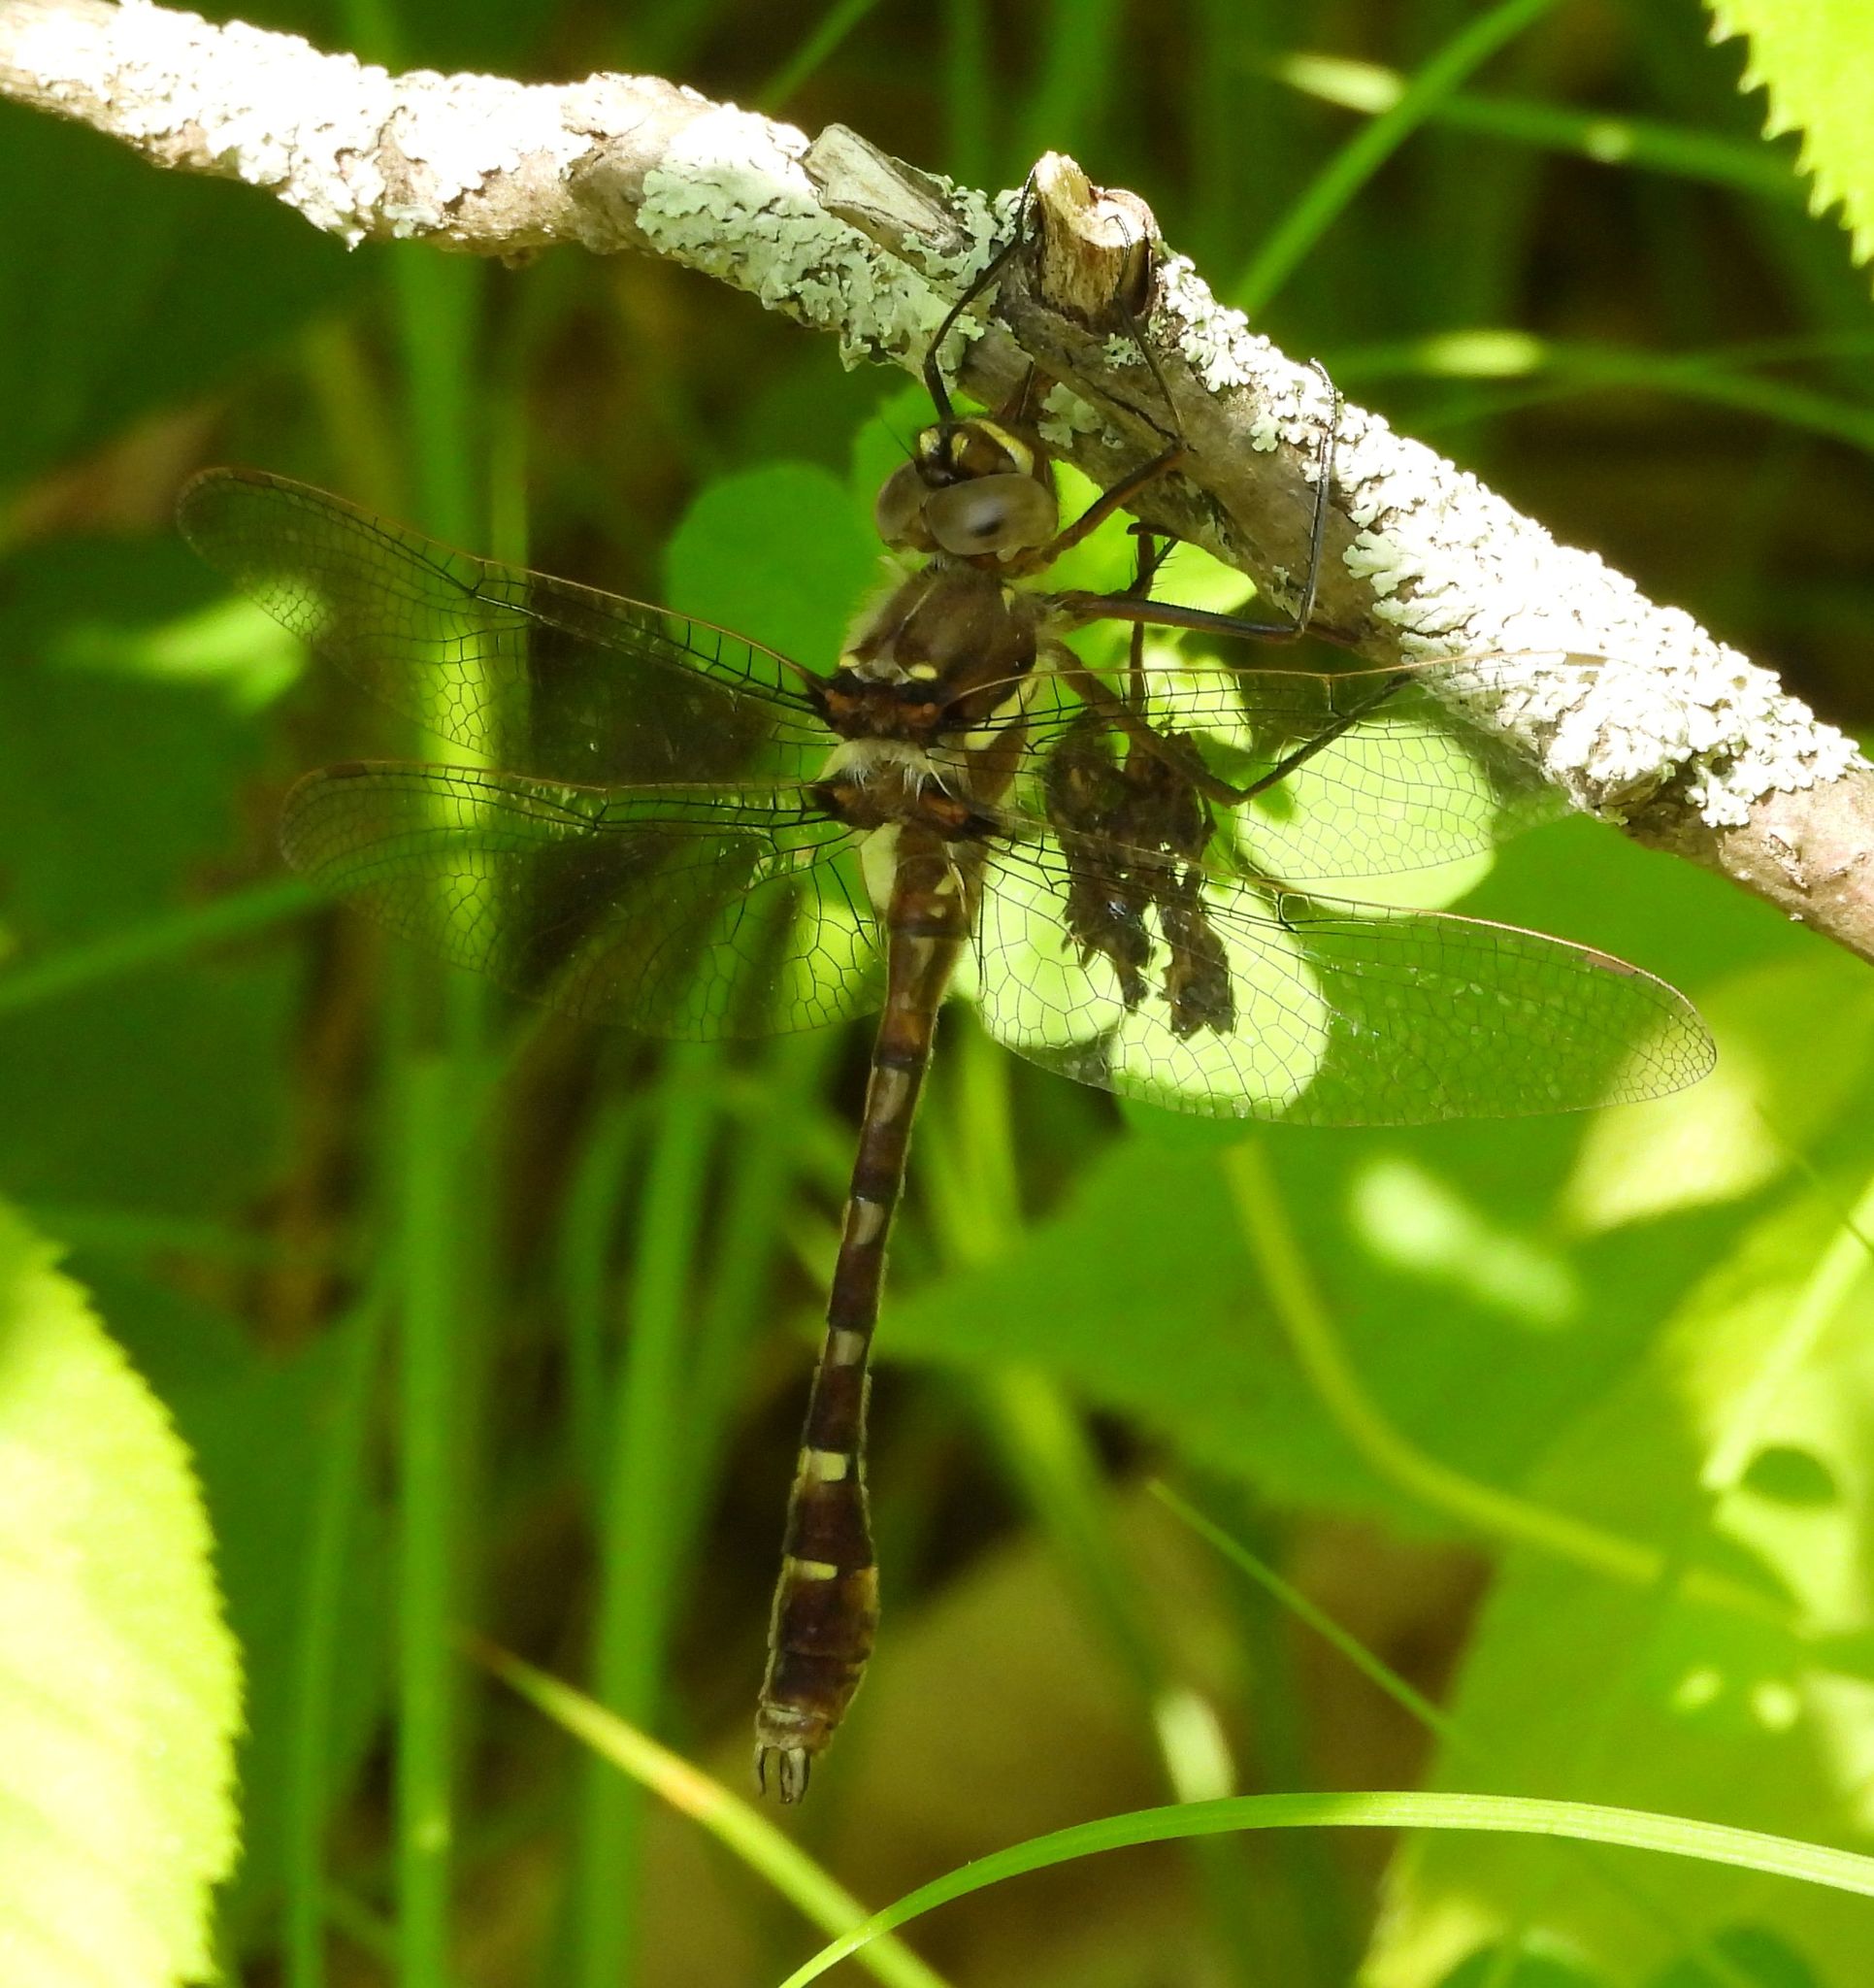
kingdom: Animalia
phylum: Arthropoda
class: Insecta
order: Odonata
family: Macromiidae
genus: Didymops
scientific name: Didymops transversa
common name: Stream cruiser
